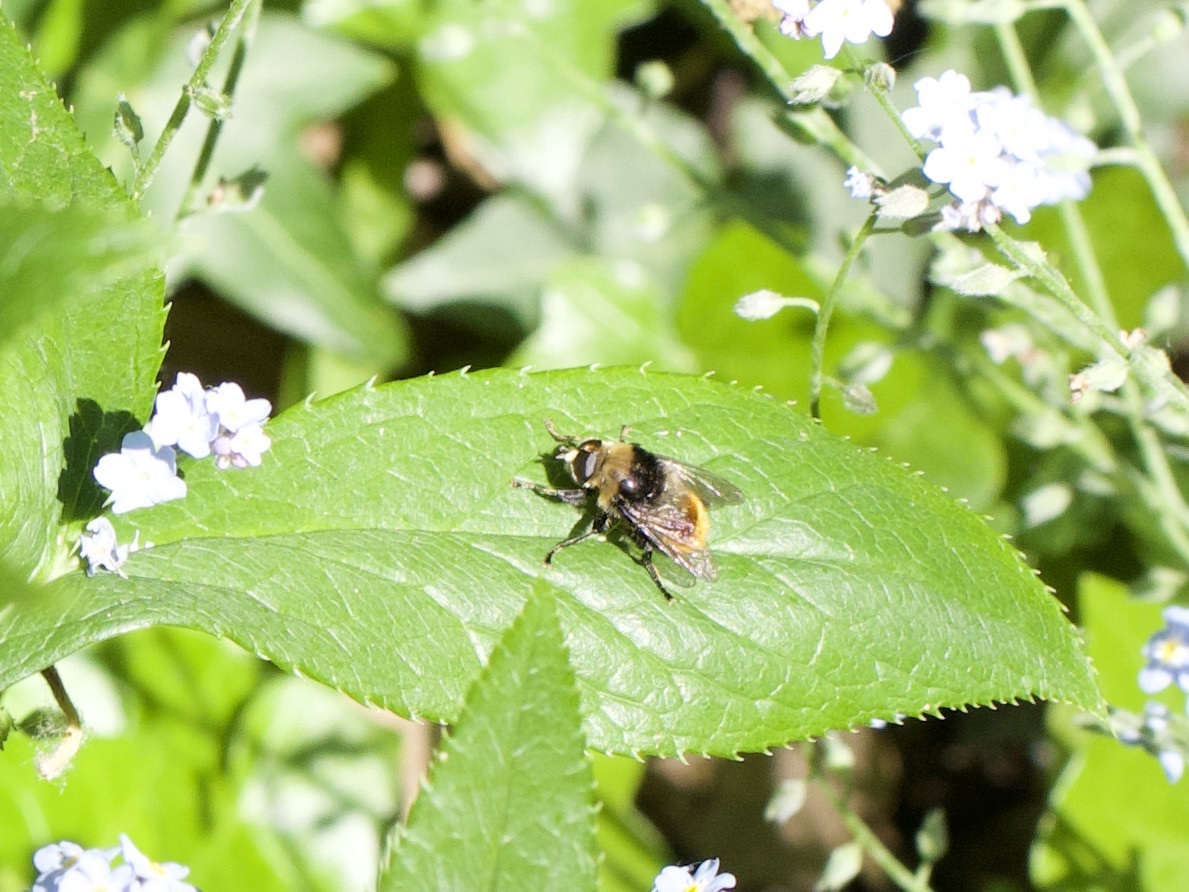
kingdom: Animalia
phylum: Arthropoda
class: Insecta
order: Diptera
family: Syrphidae
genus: Merodon
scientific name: Merodon equestris
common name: Greater bulb-fly
